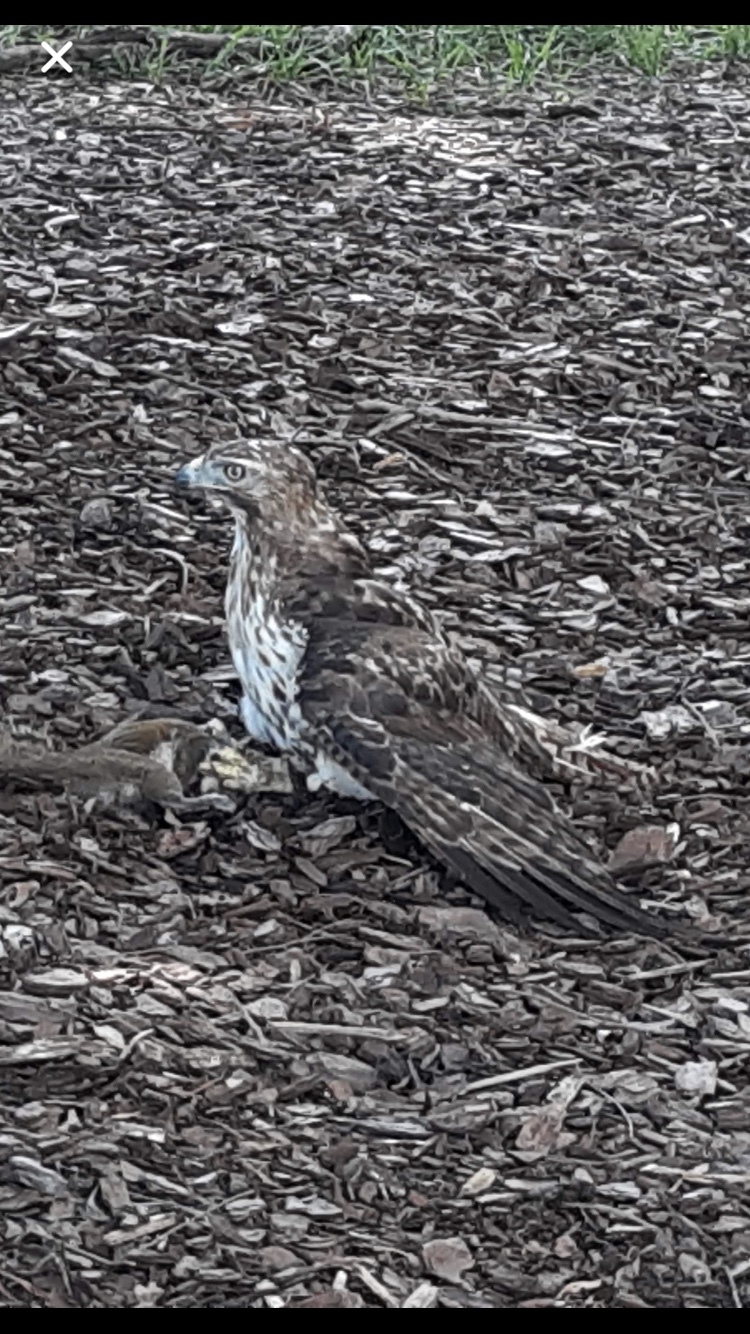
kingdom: Animalia
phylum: Chordata
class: Aves
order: Accipitriformes
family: Accipitridae
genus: Buteo
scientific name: Buteo jamaicensis
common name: Red-tailed hawk
